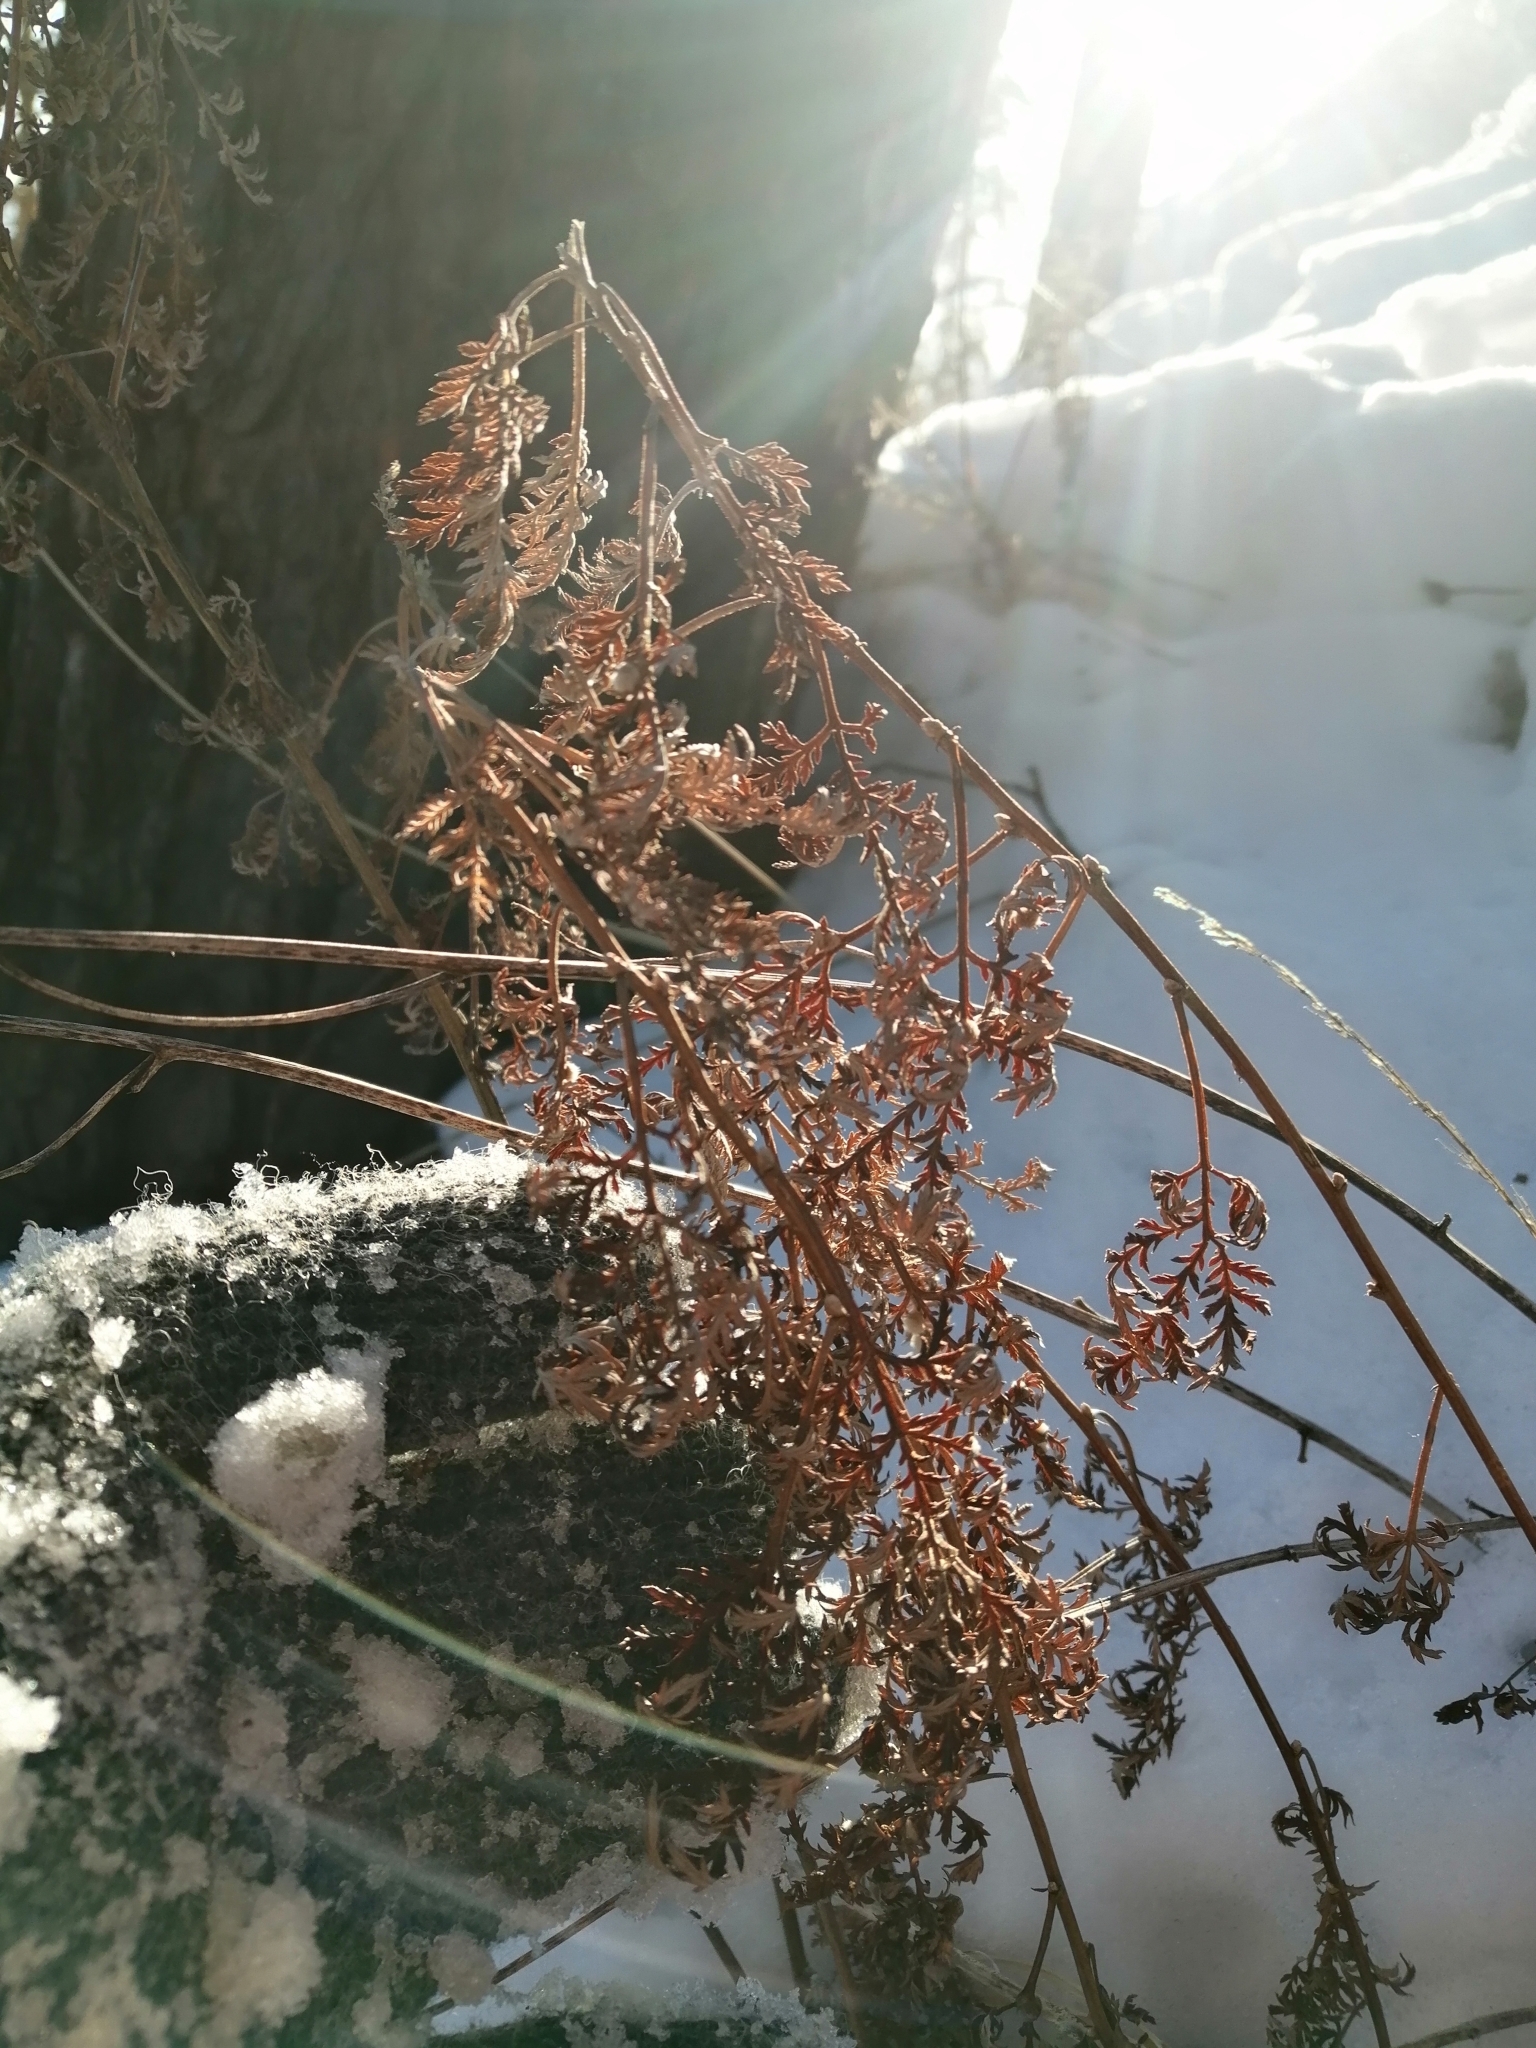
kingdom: Plantae
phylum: Tracheophyta
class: Magnoliopsida
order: Asterales
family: Asteraceae
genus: Artemisia
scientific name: Artemisia gmelinii
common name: Gmelin's wormwood
